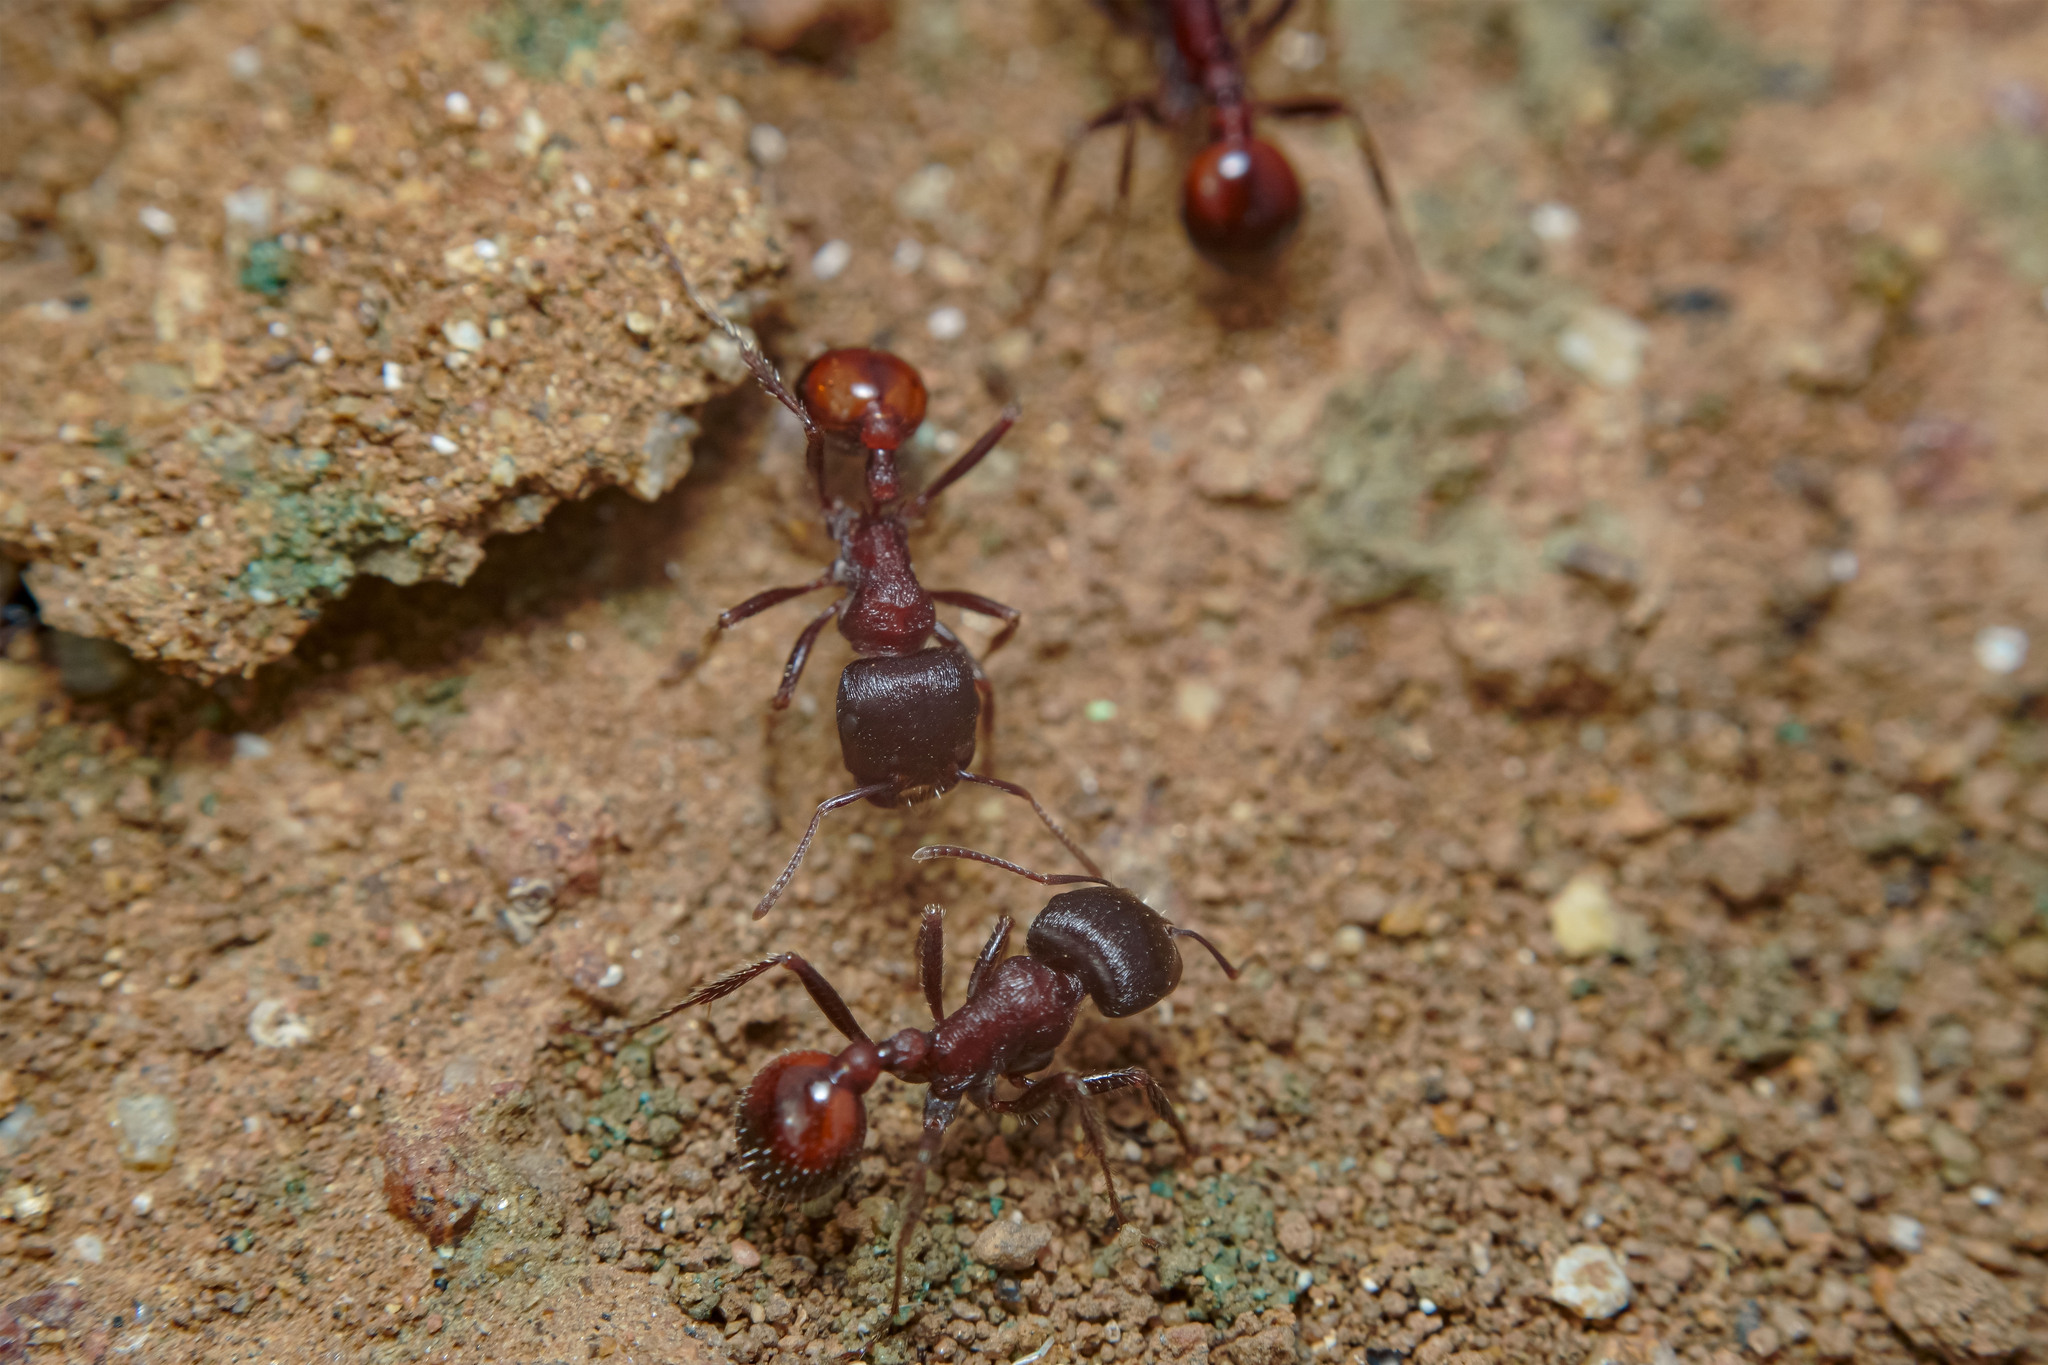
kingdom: Animalia
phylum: Arthropoda
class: Insecta
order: Hymenoptera
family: Formicidae
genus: Pogonomyrmex
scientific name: Pogonomyrmex rugosus
